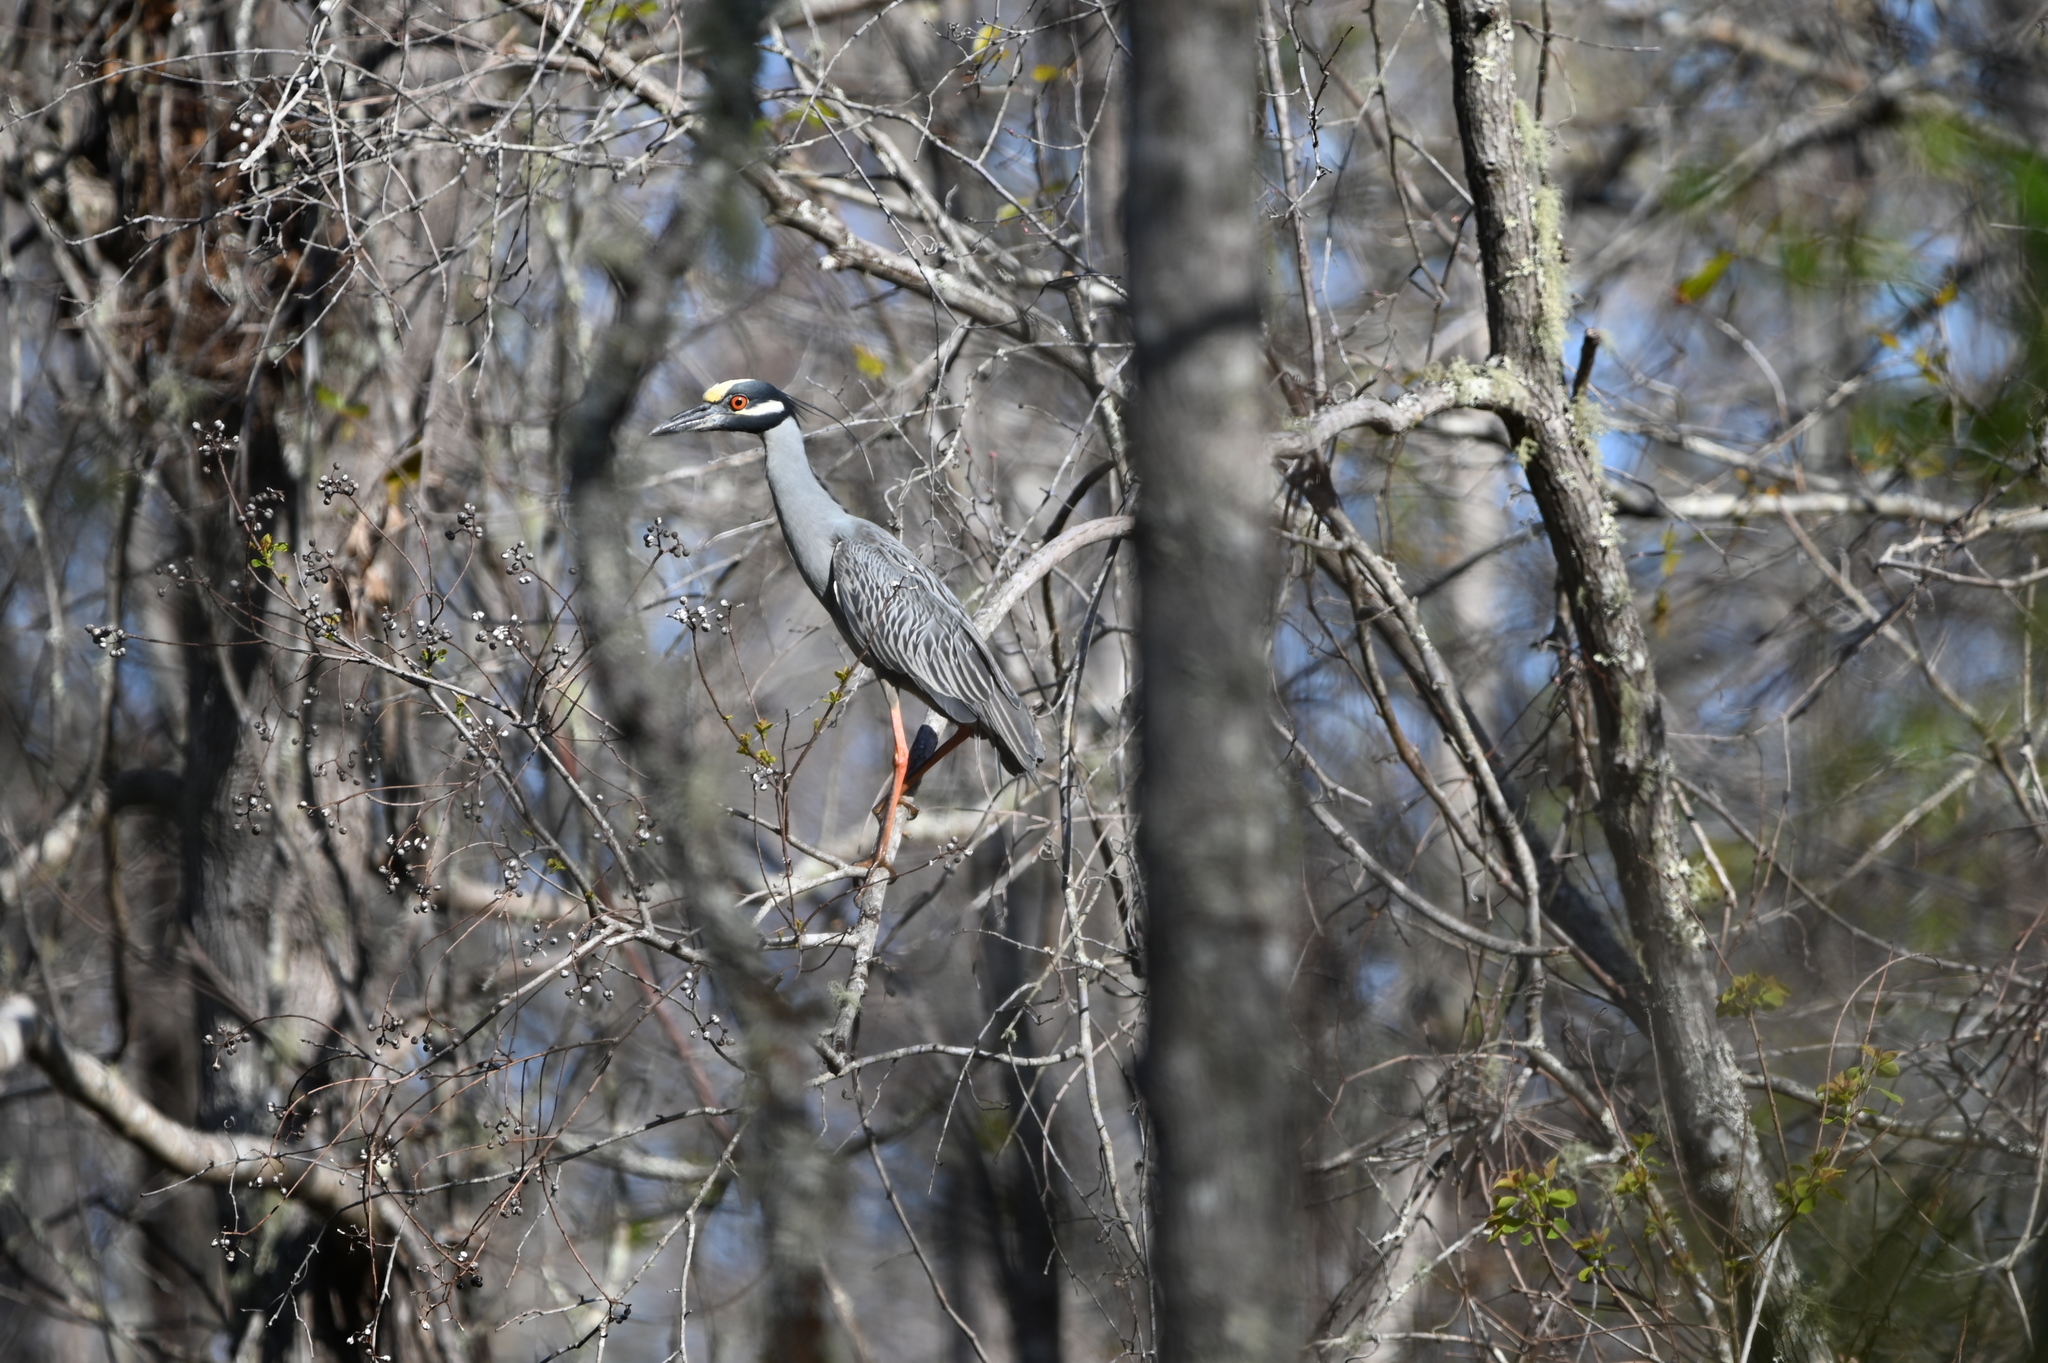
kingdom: Animalia
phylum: Chordata
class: Aves
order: Pelecaniformes
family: Ardeidae
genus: Nyctanassa
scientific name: Nyctanassa violacea
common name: Yellow-crowned night heron
